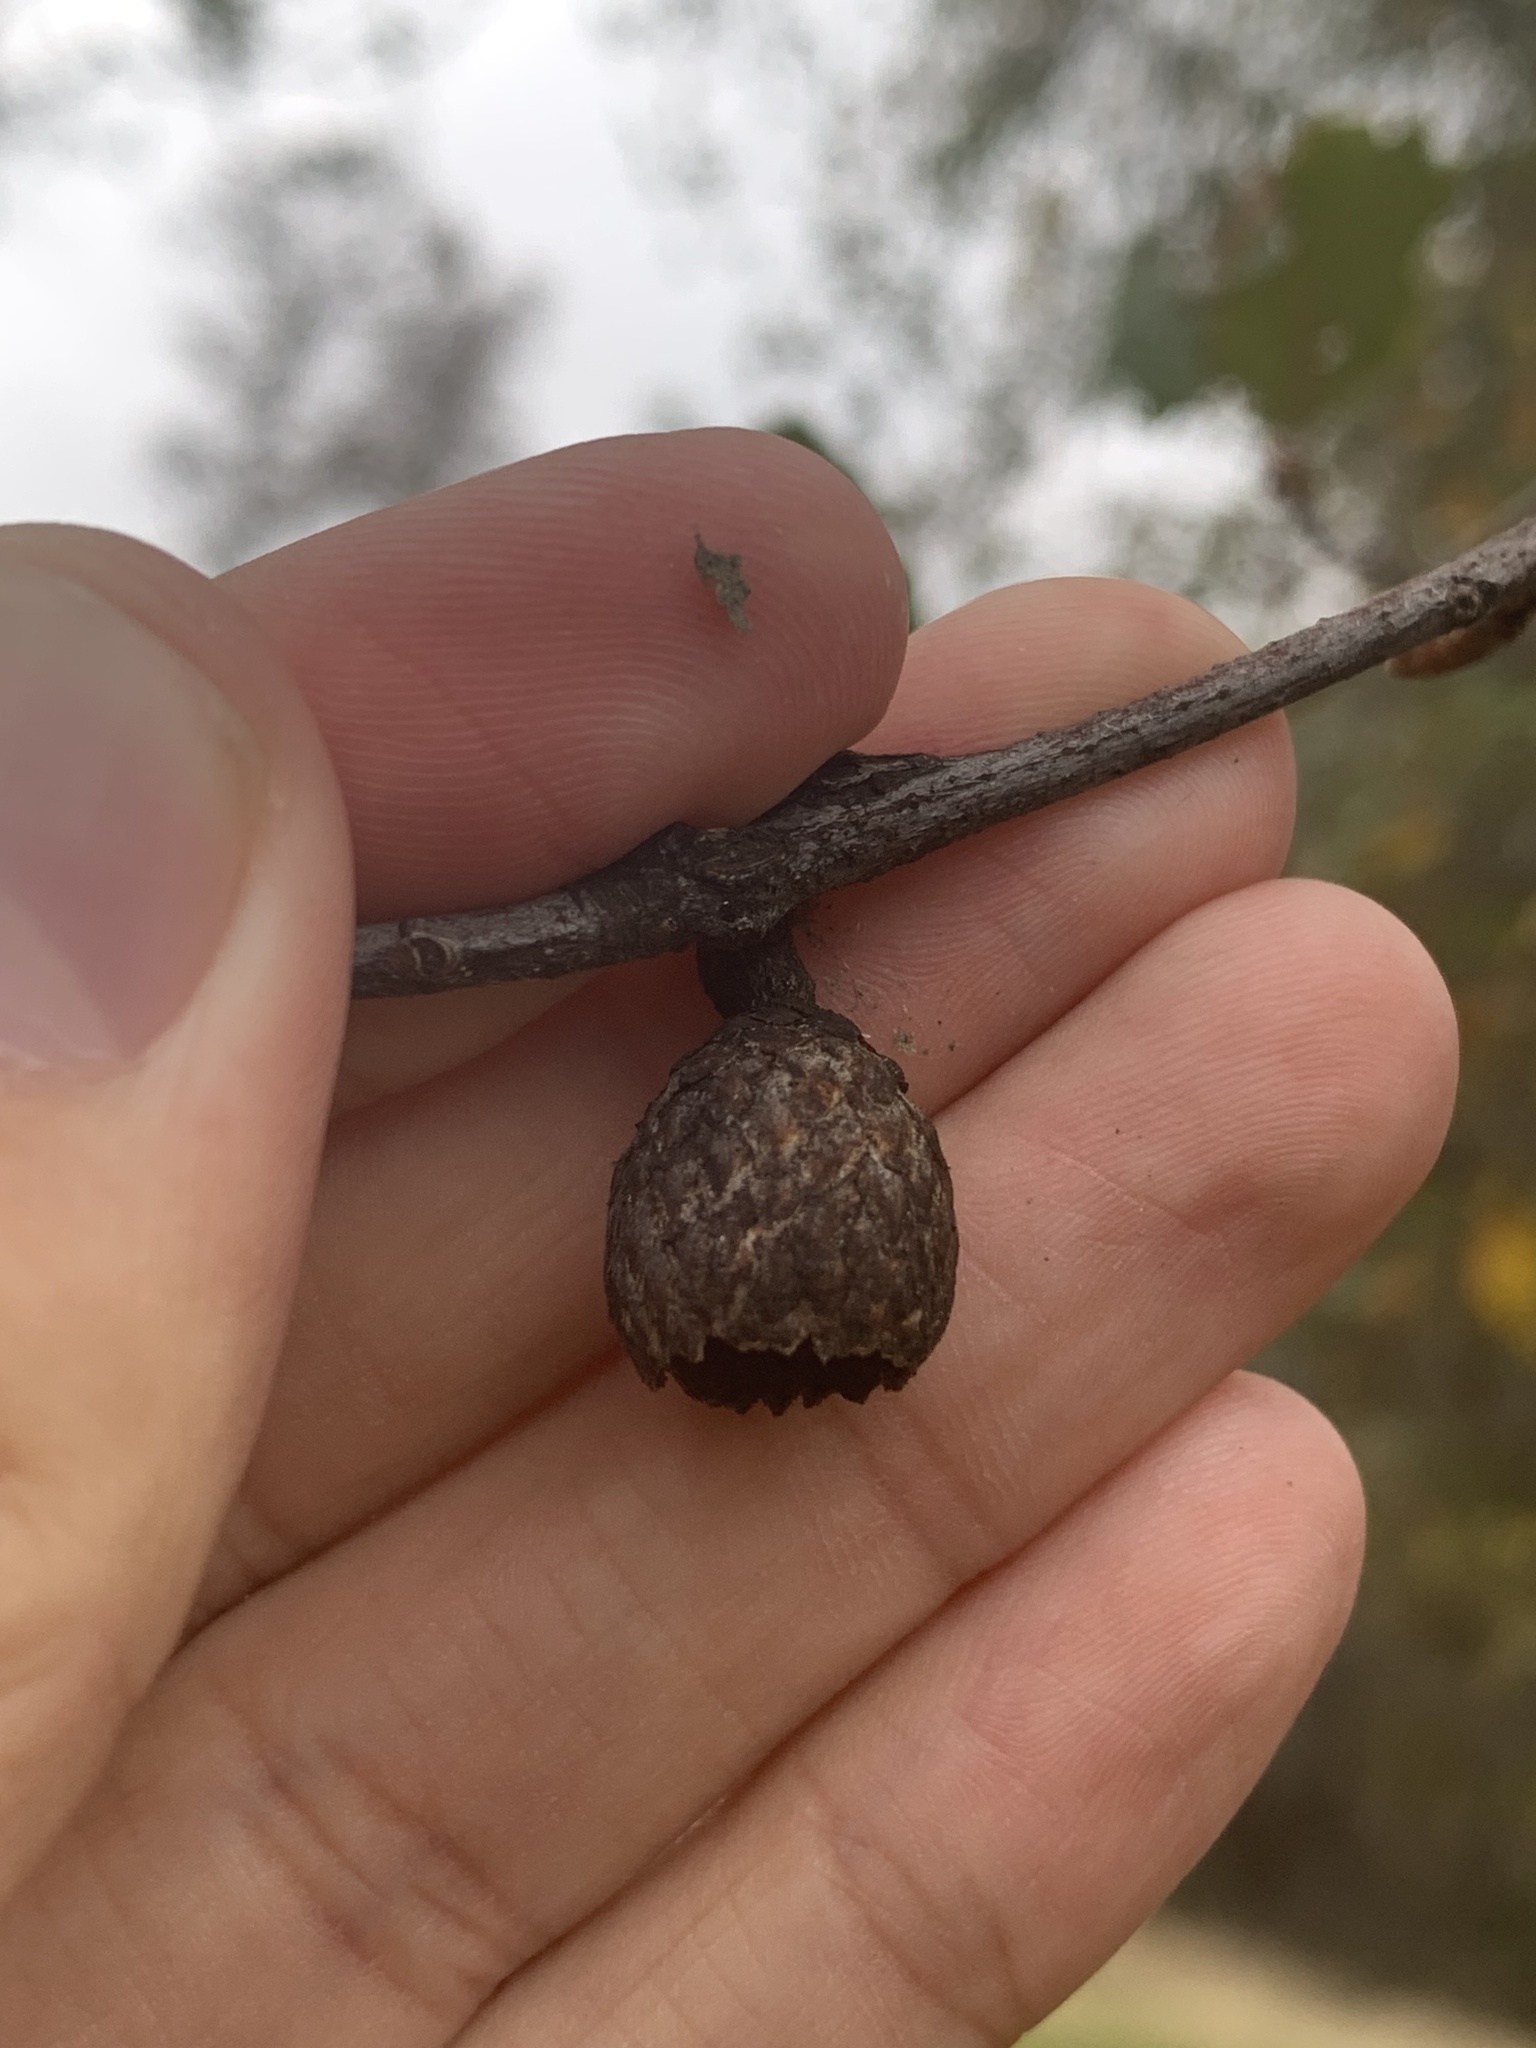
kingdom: Plantae
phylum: Tracheophyta
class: Magnoliopsida
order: Fagales
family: Fagaceae
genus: Quercus
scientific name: Quercus morehus
